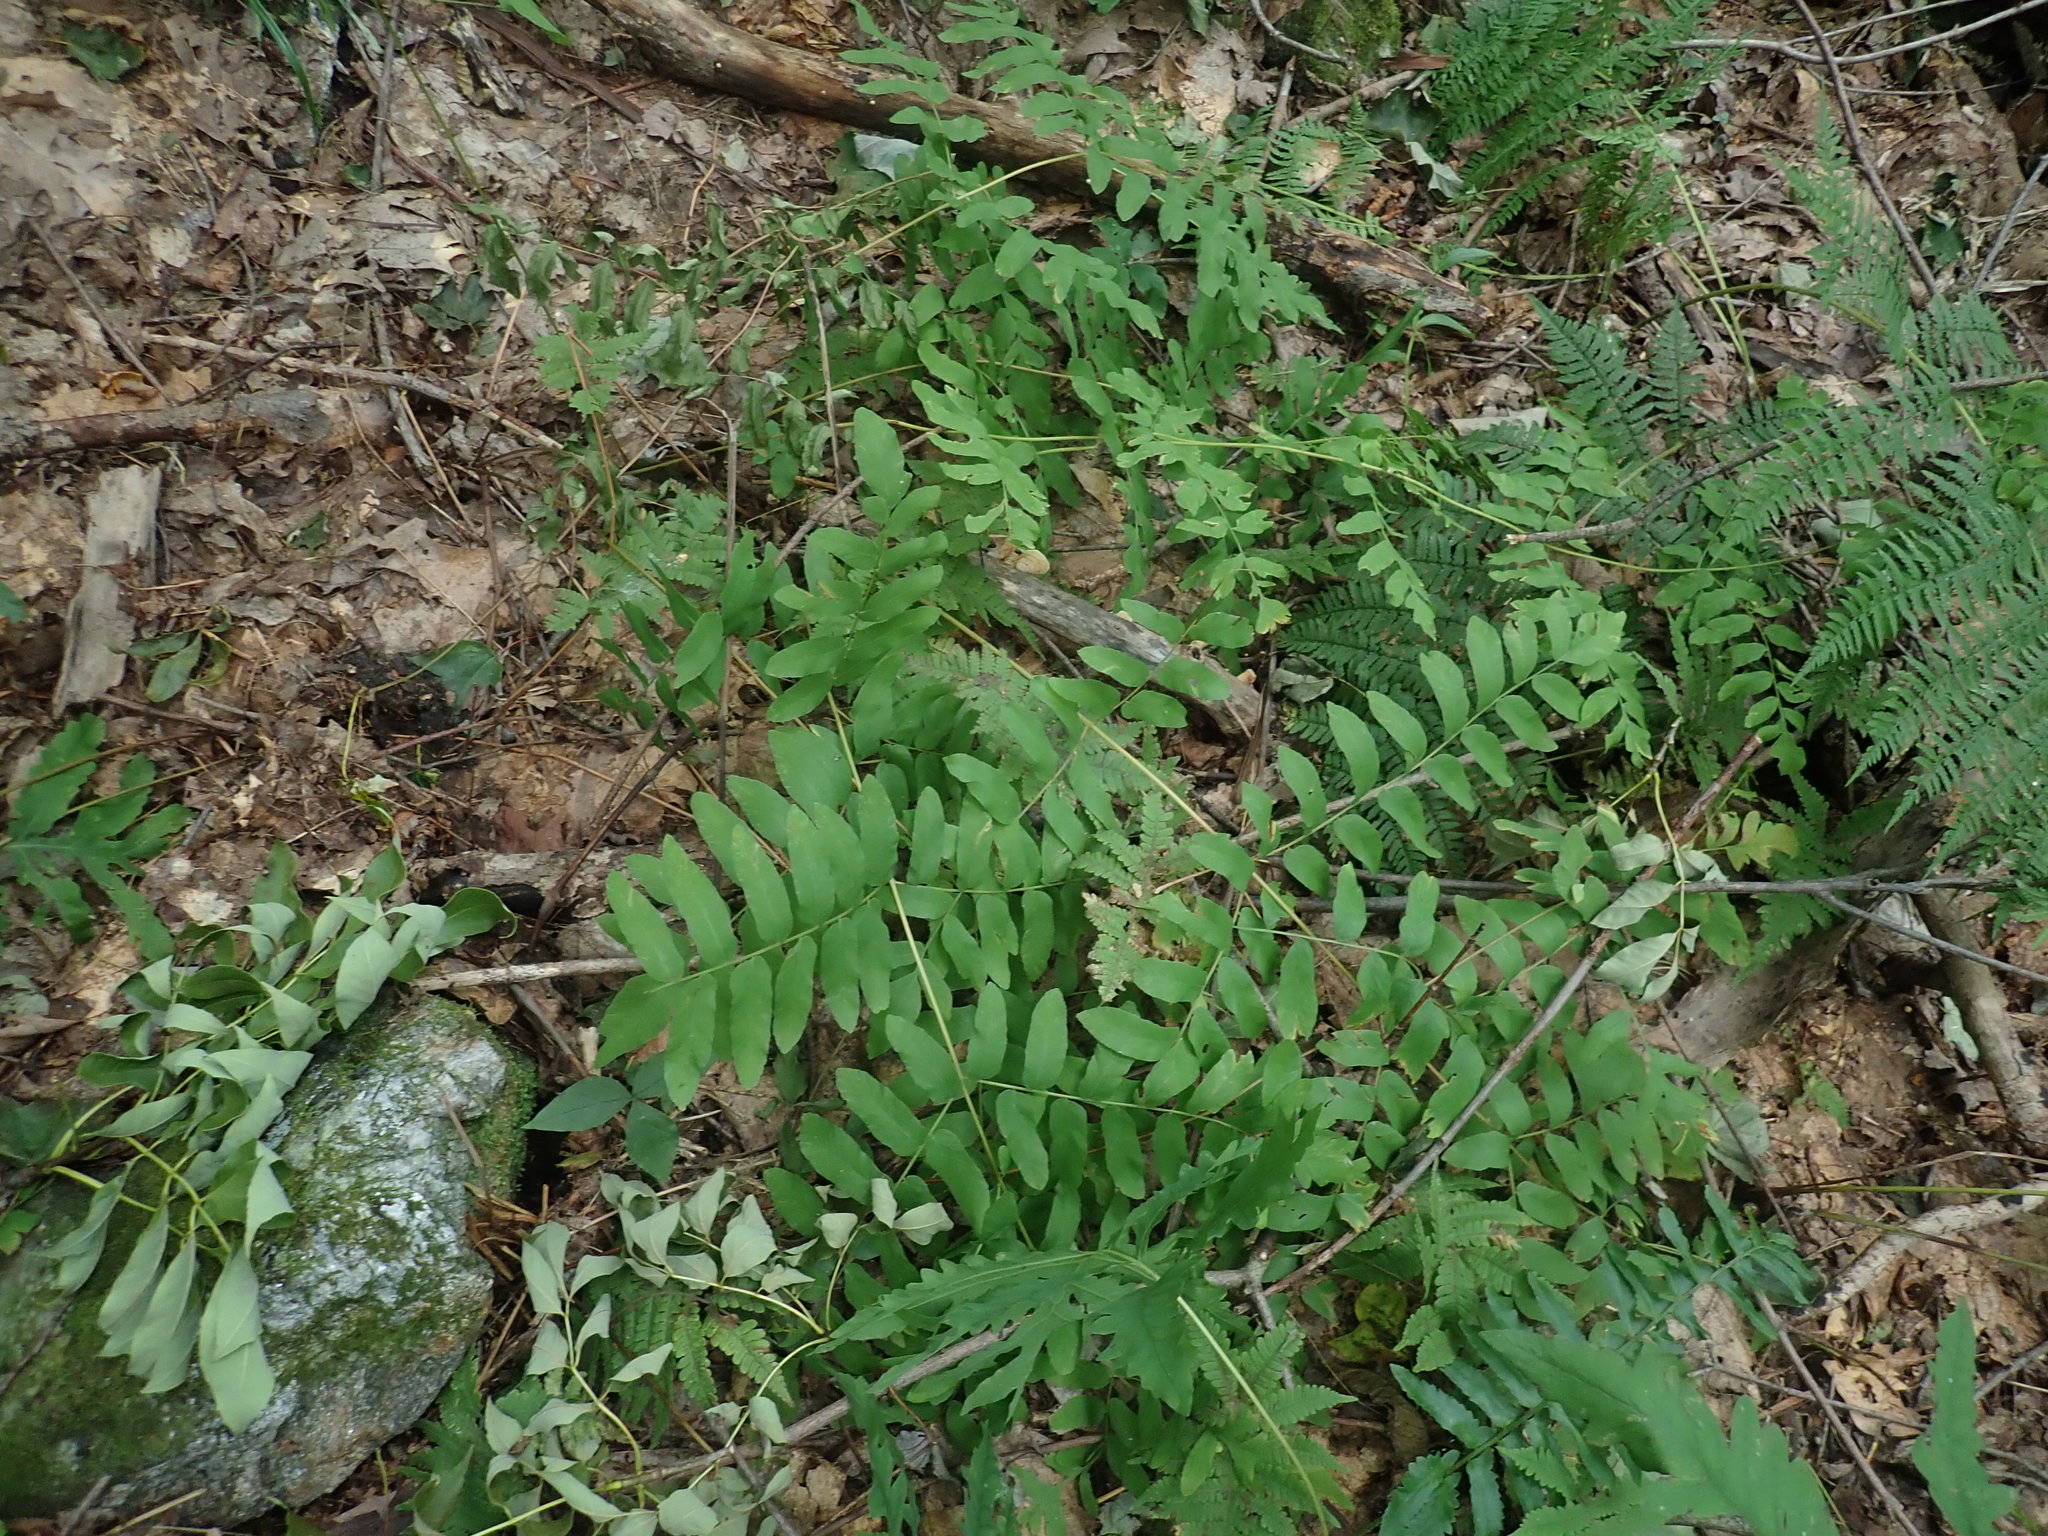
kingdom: Plantae
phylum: Tracheophyta
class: Polypodiopsida
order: Osmundales
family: Osmundaceae
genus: Osmunda
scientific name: Osmunda spectabilis
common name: American royal fern
